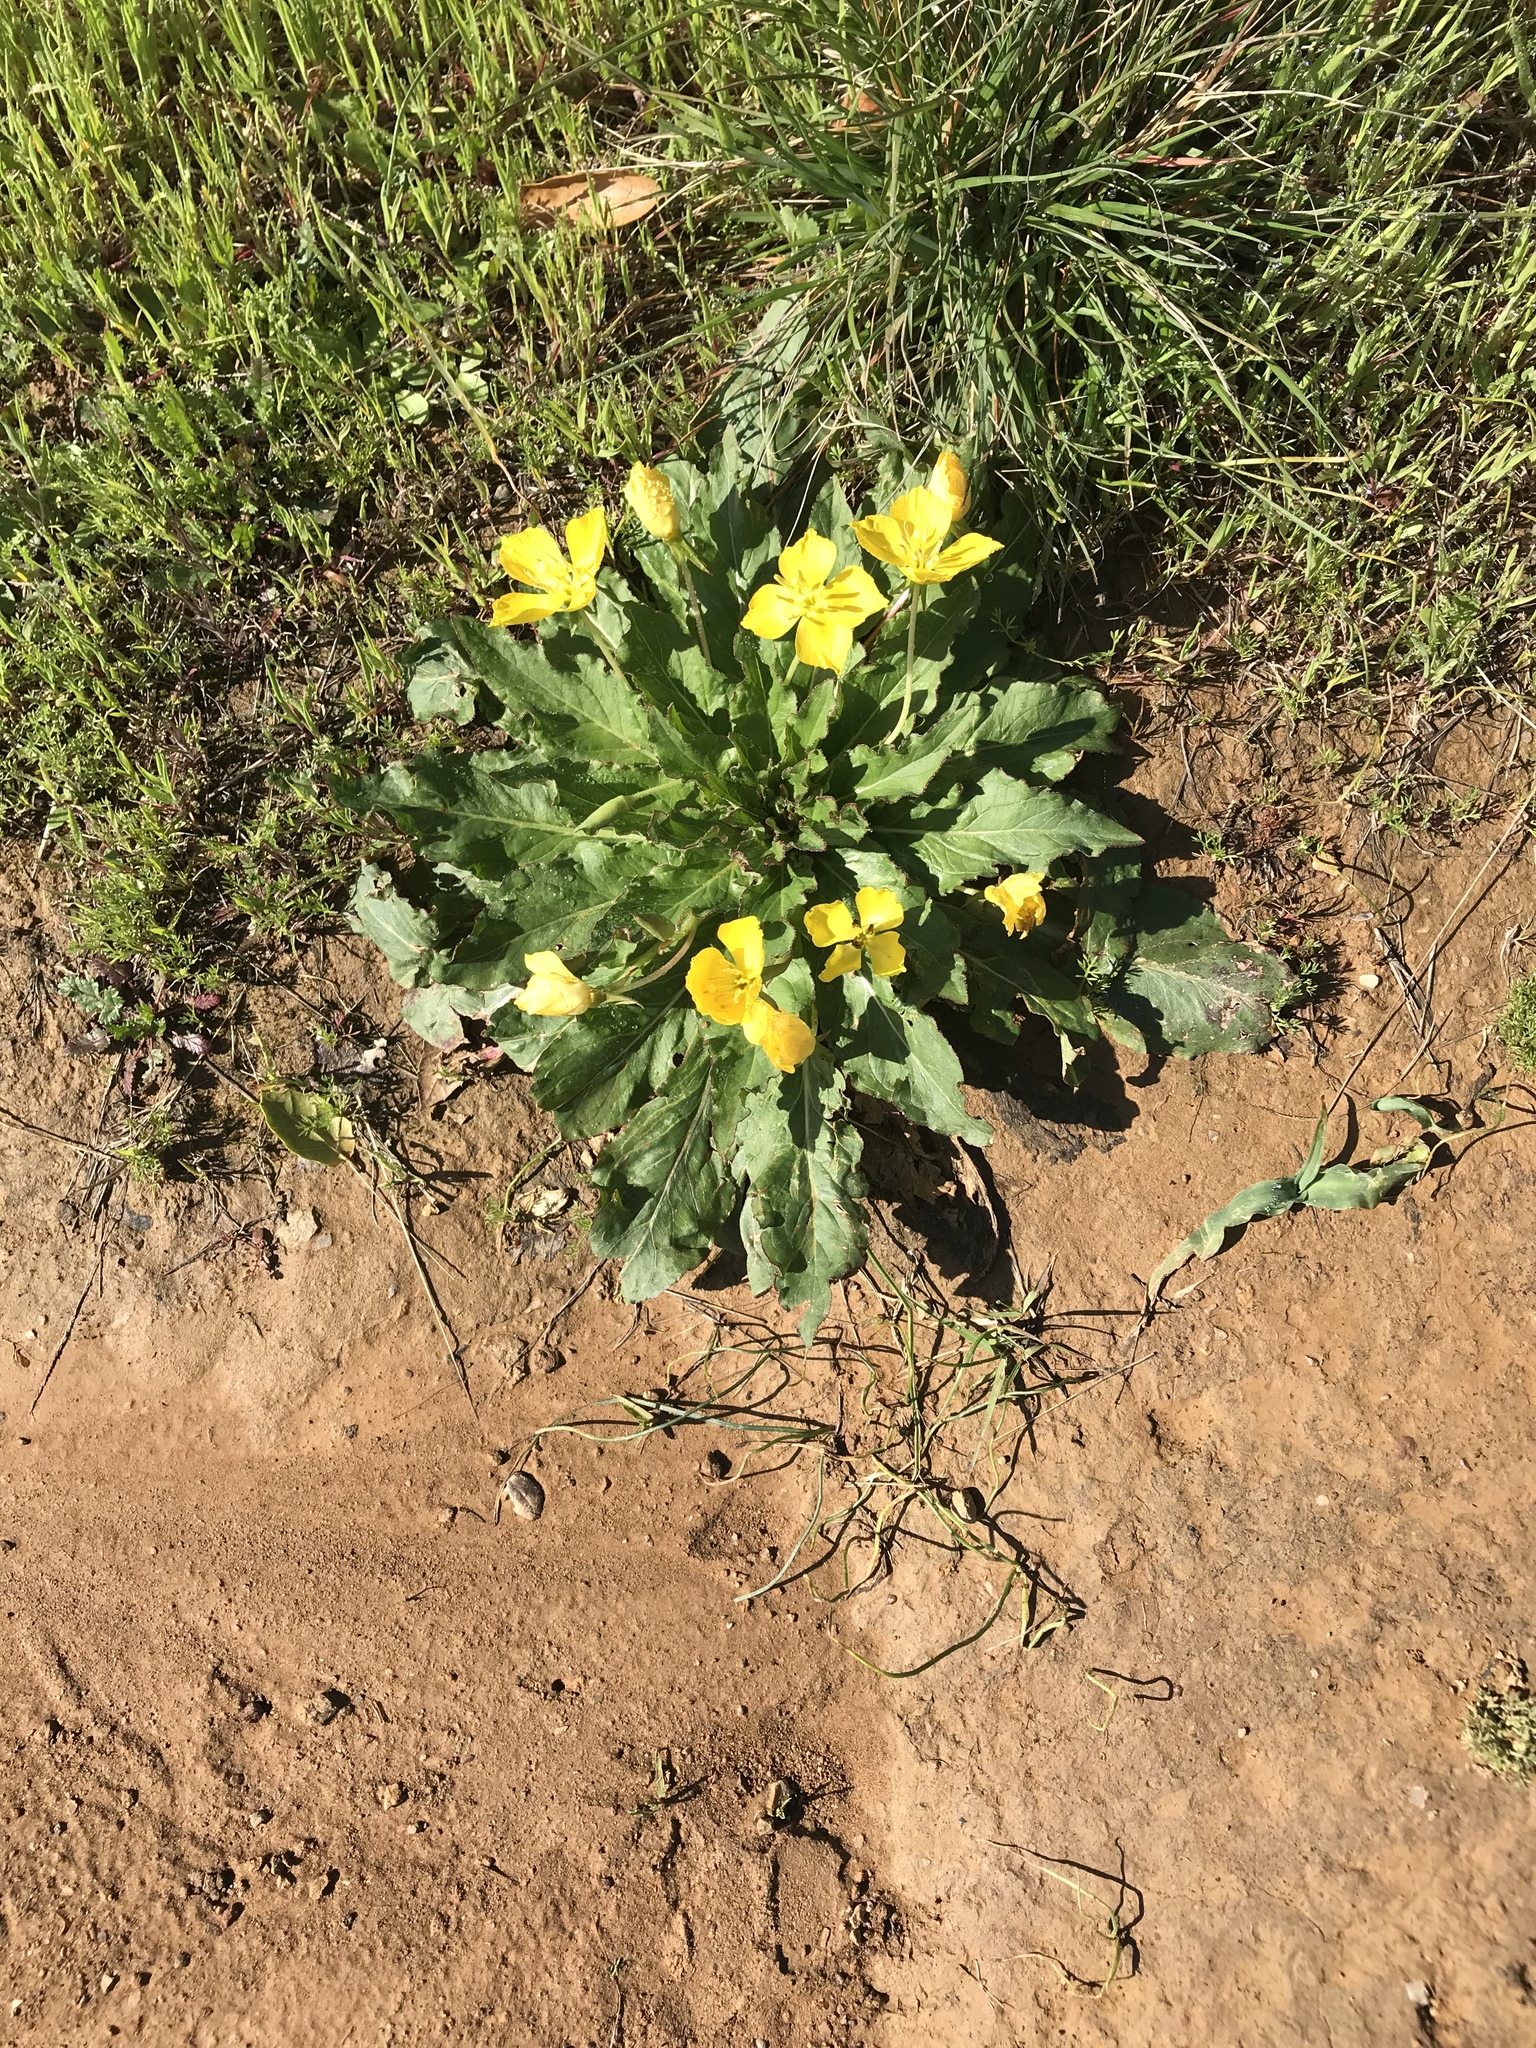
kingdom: Plantae
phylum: Tracheophyta
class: Magnoliopsida
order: Myrtales
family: Onagraceae
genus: Taraxia
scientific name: Taraxia ovata
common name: Goldeneggs
